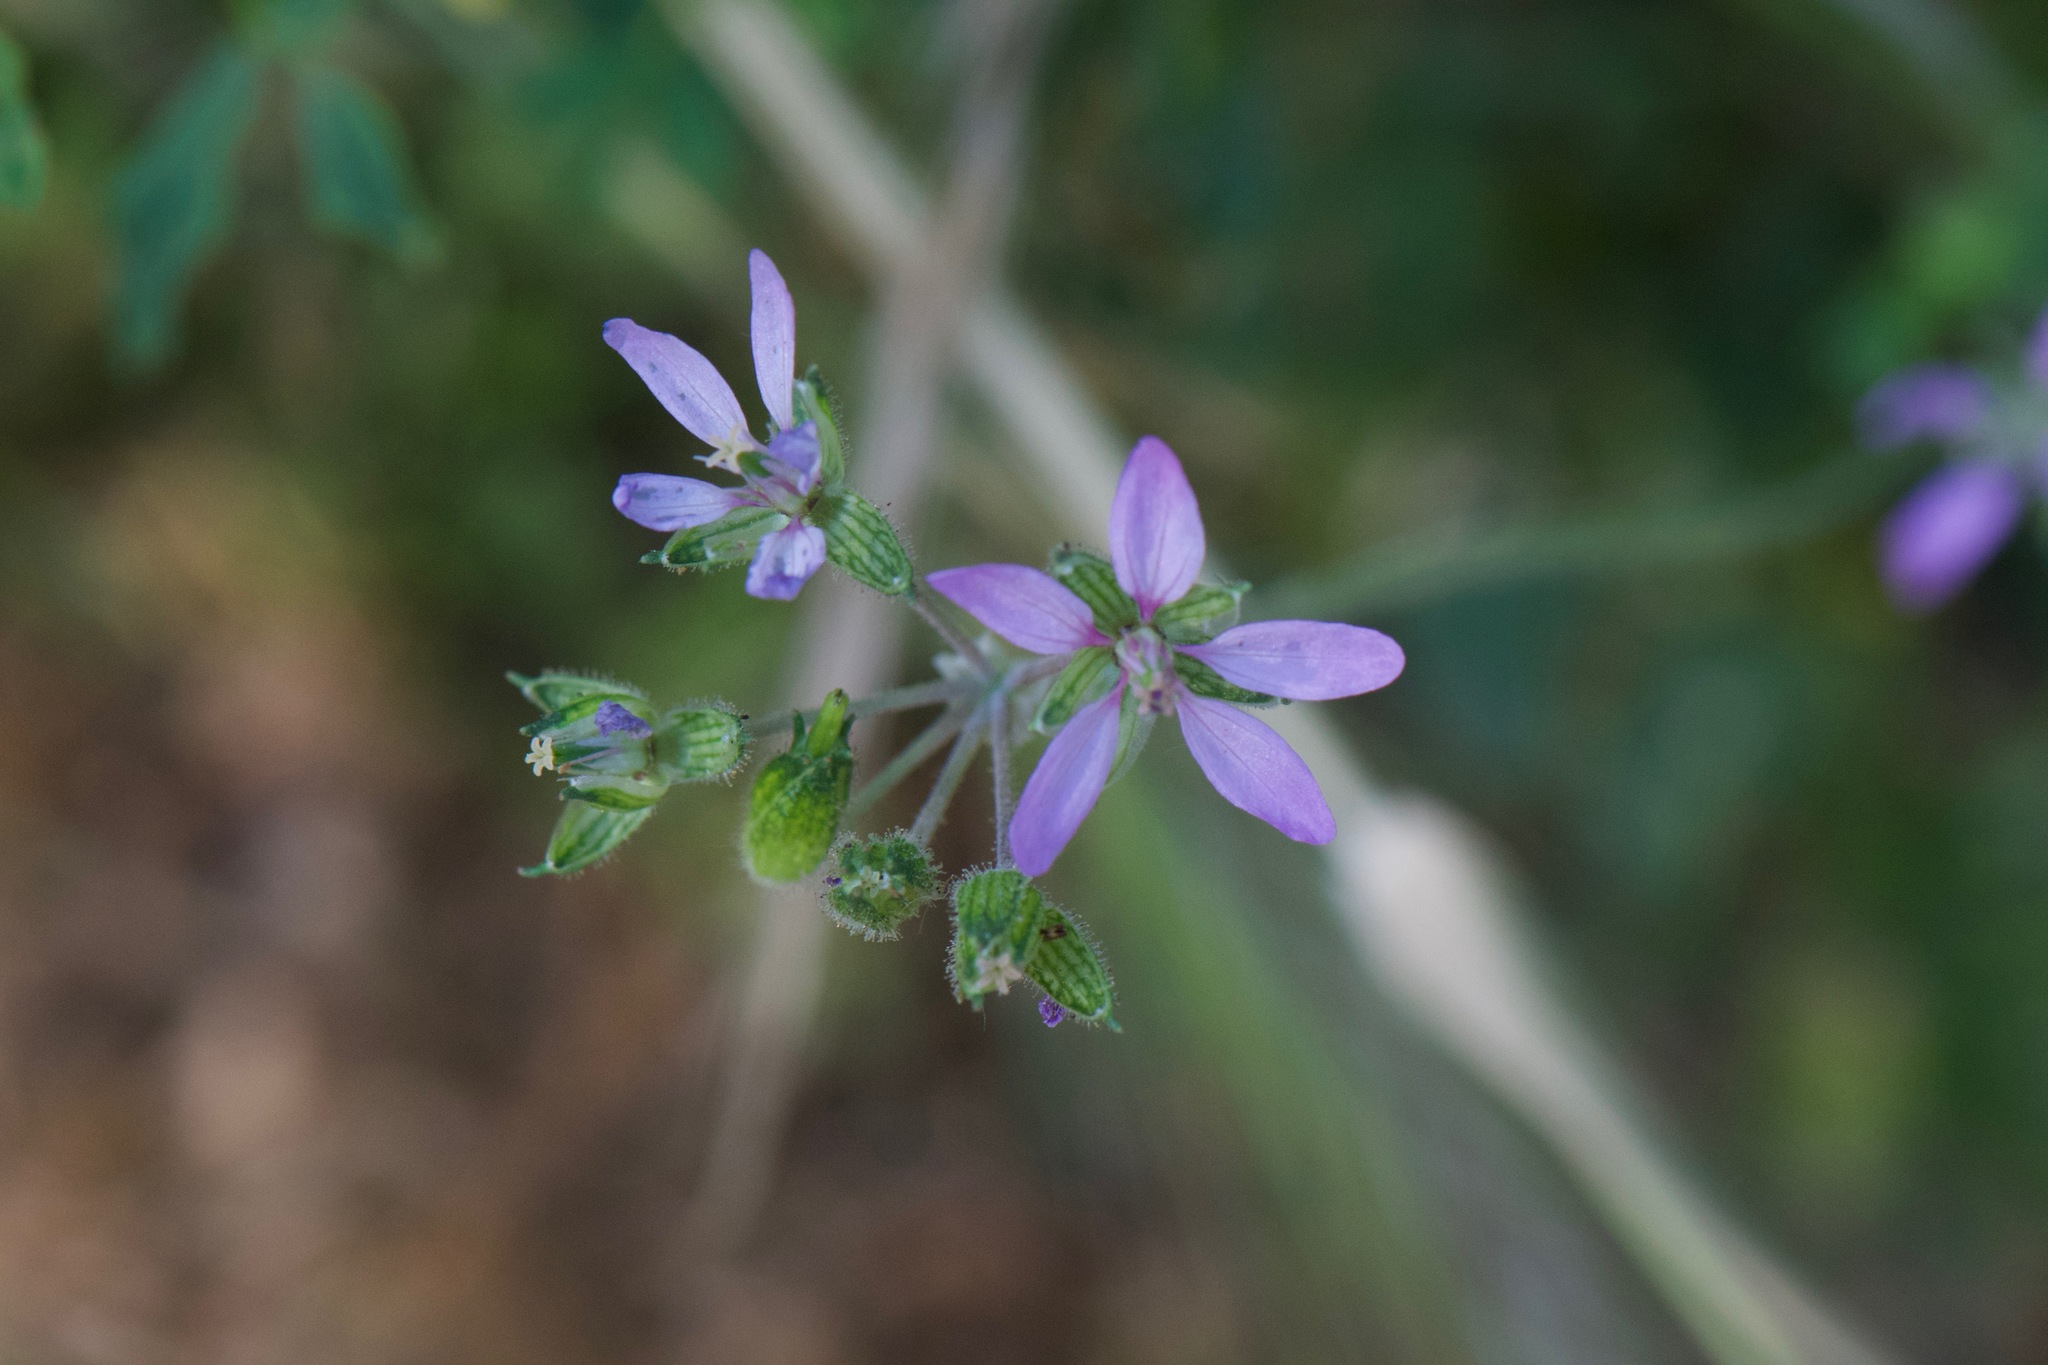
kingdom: Plantae
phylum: Tracheophyta
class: Magnoliopsida
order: Geraniales
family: Geraniaceae
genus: Erodium
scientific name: Erodium moschatum
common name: Musk stork's-bill
